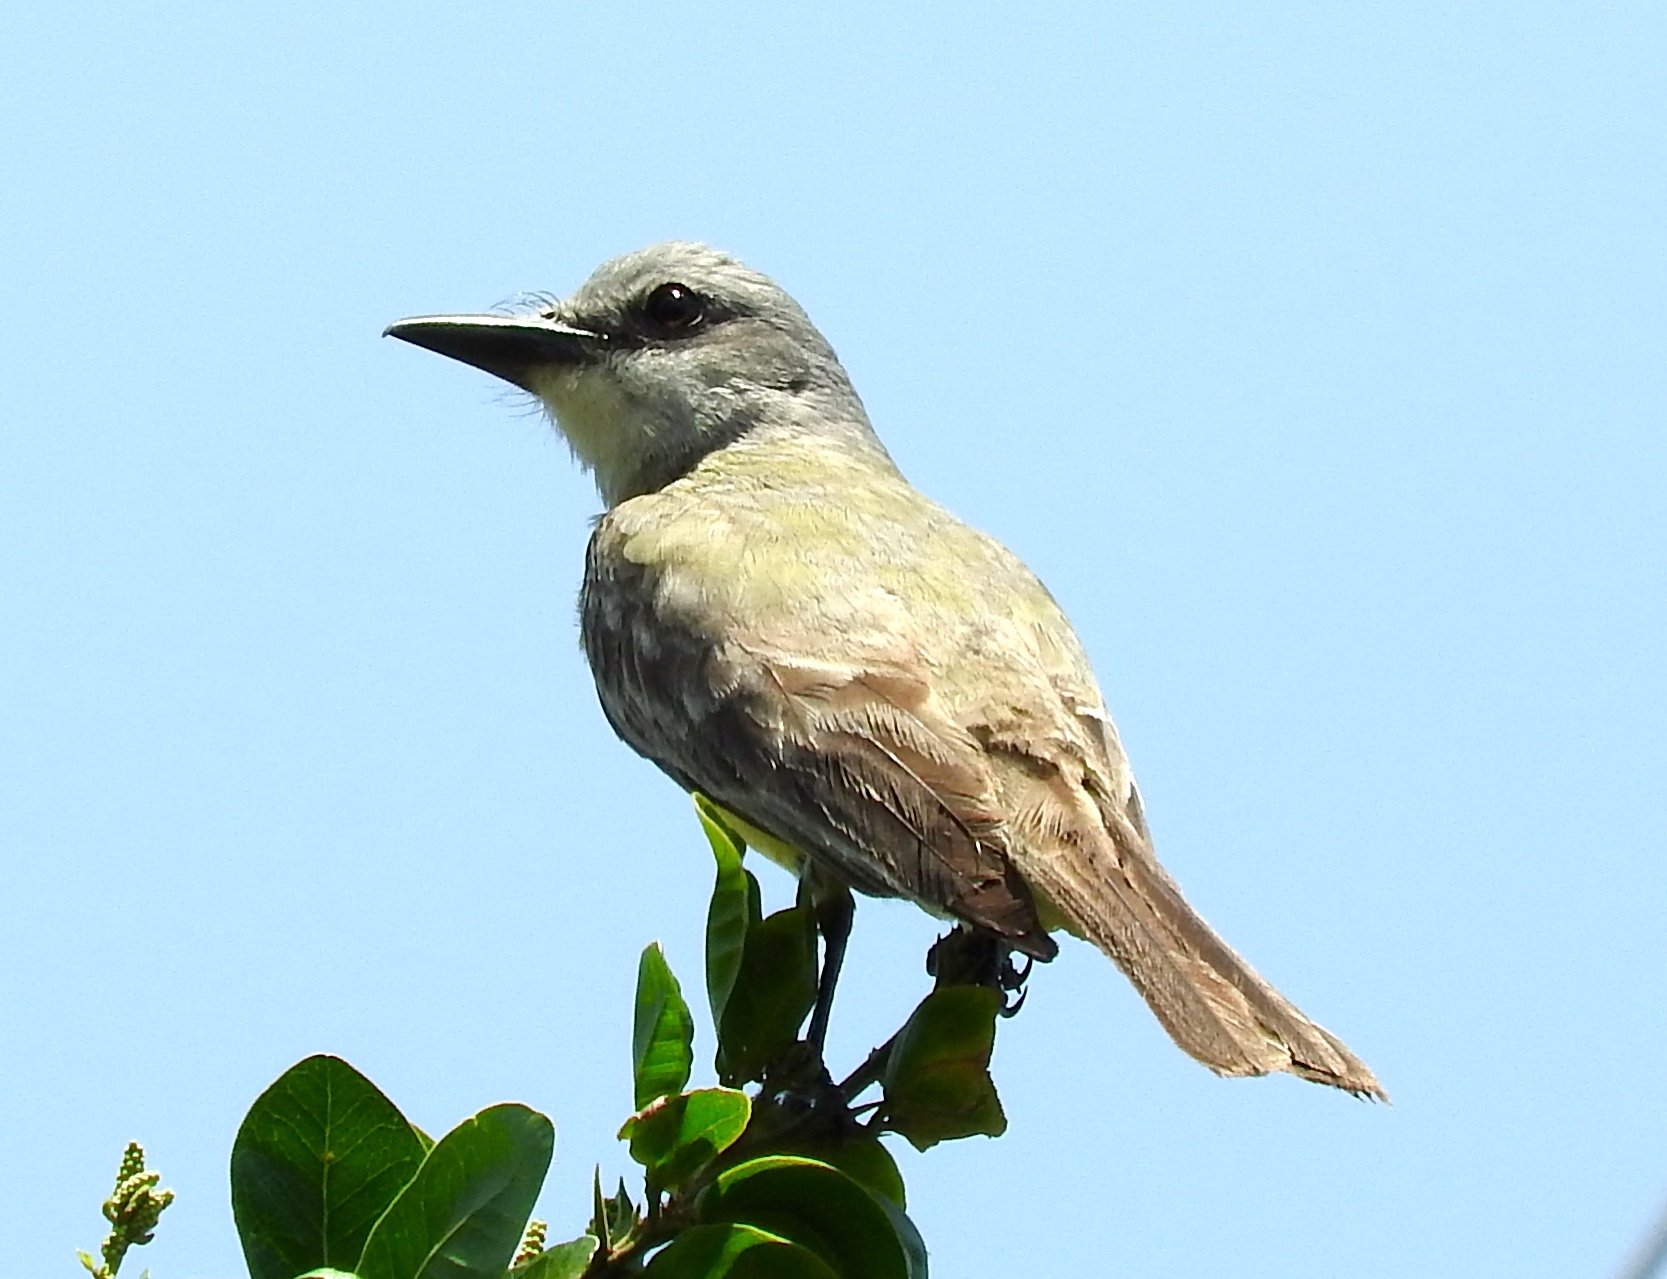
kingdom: Animalia
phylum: Chordata
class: Aves
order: Passeriformes
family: Tyrannidae
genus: Tyrannus
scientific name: Tyrannus melancholicus
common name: Tropical kingbird
